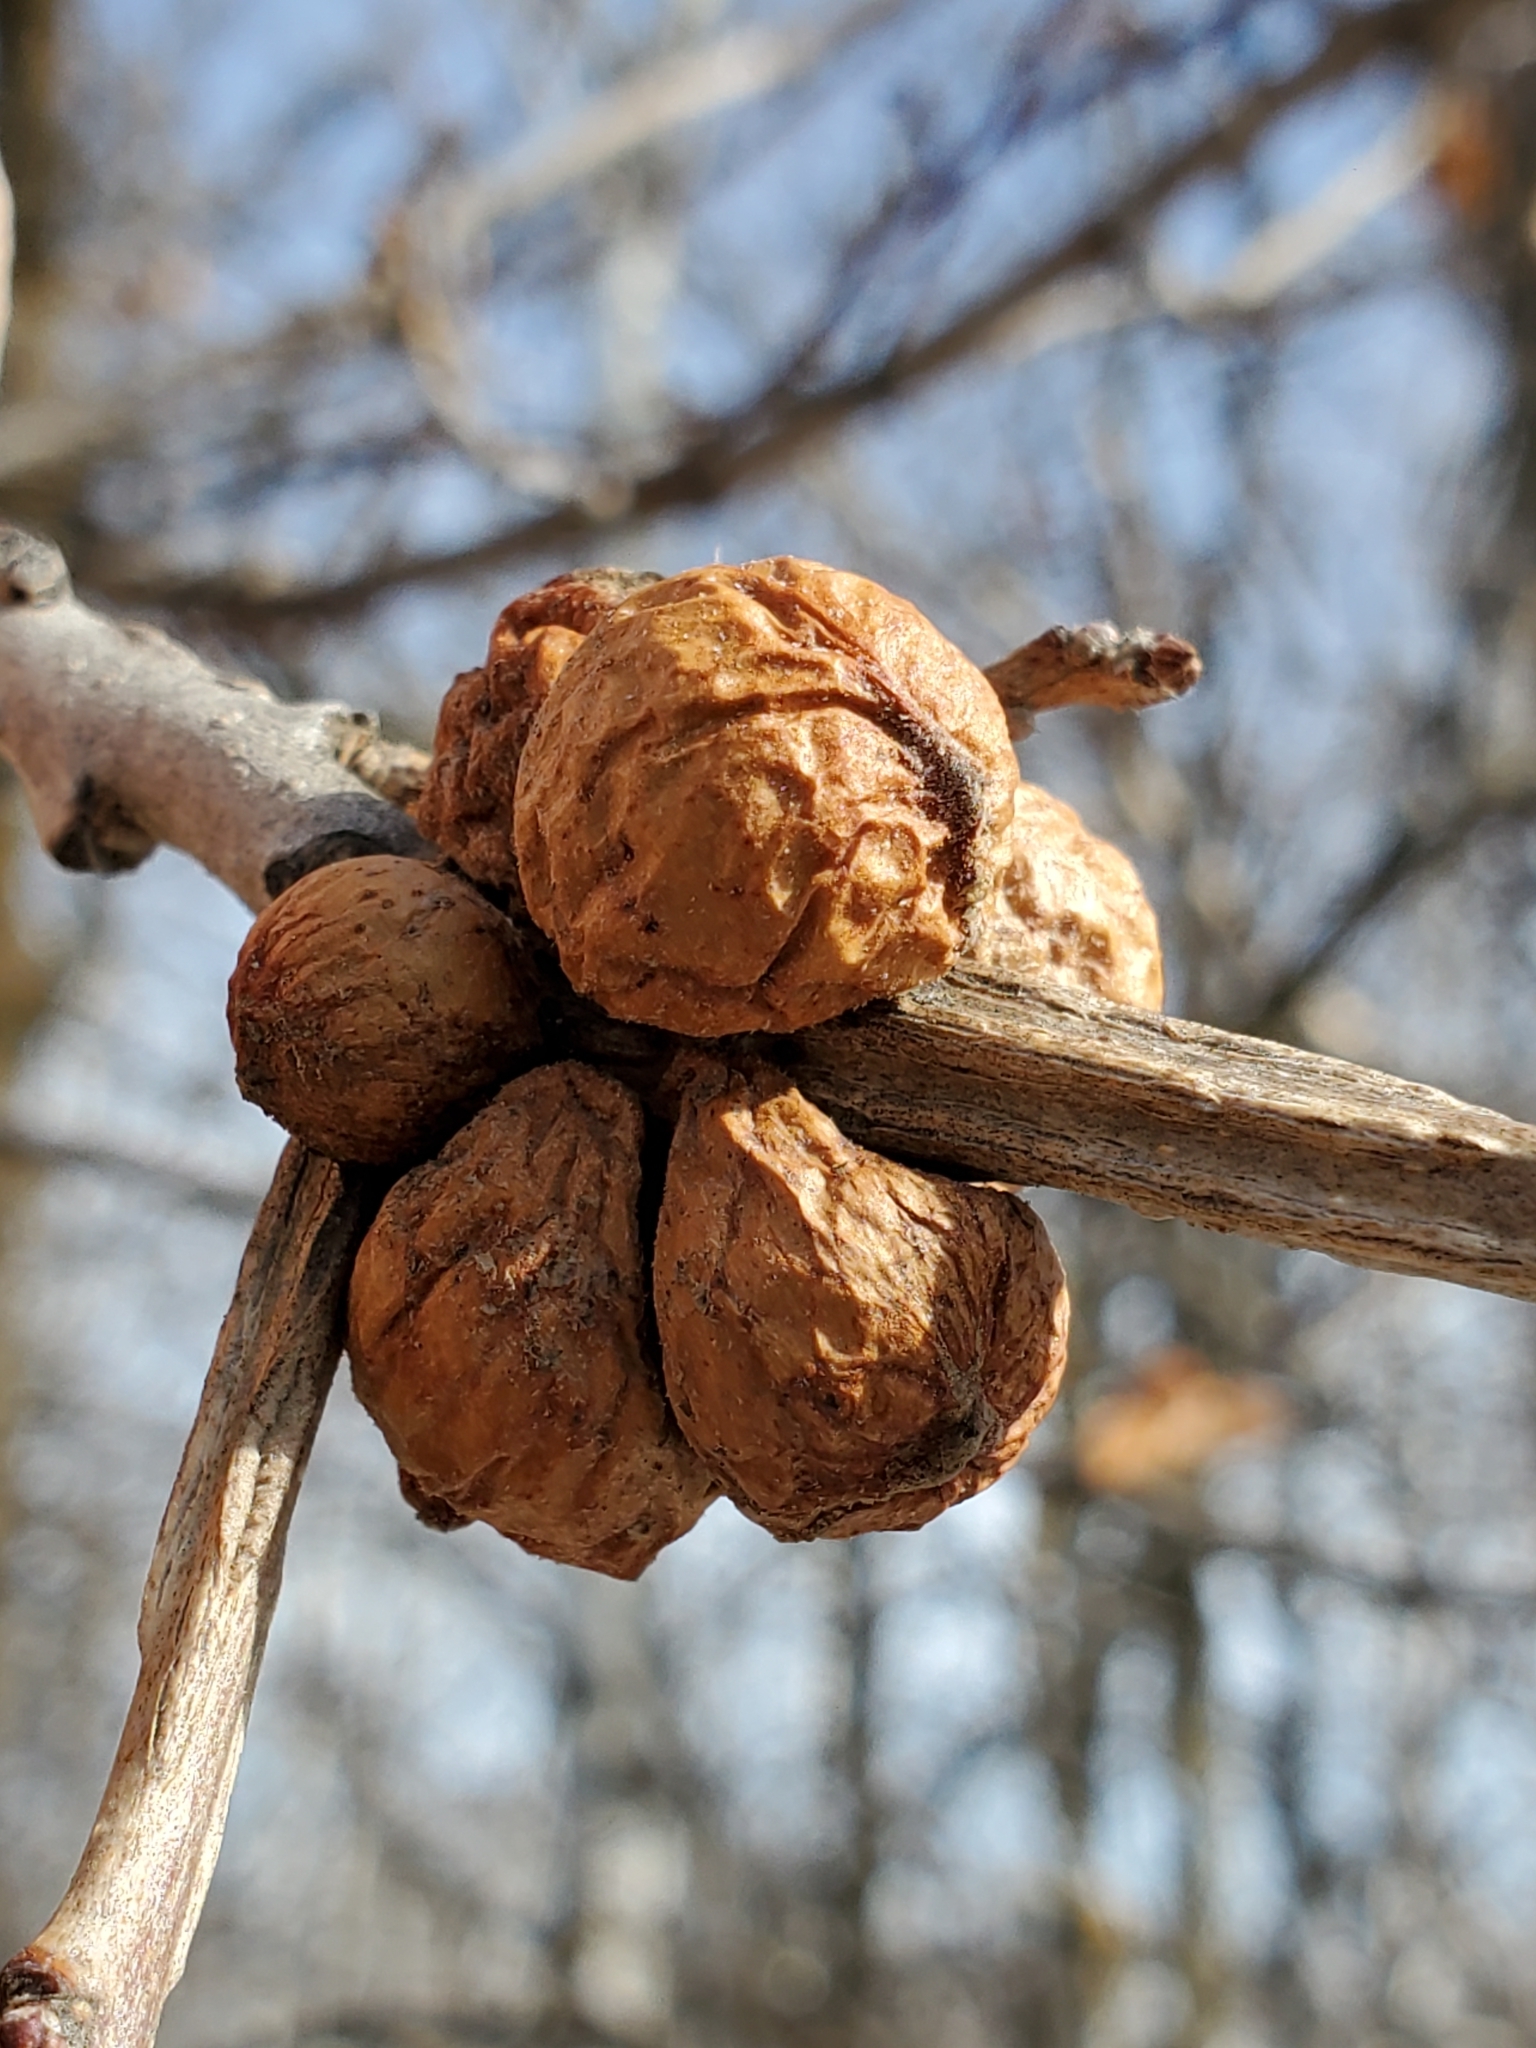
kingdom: Animalia
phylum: Arthropoda
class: Insecta
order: Hymenoptera
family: Cynipidae
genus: Disholcaspis
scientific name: Disholcaspis
